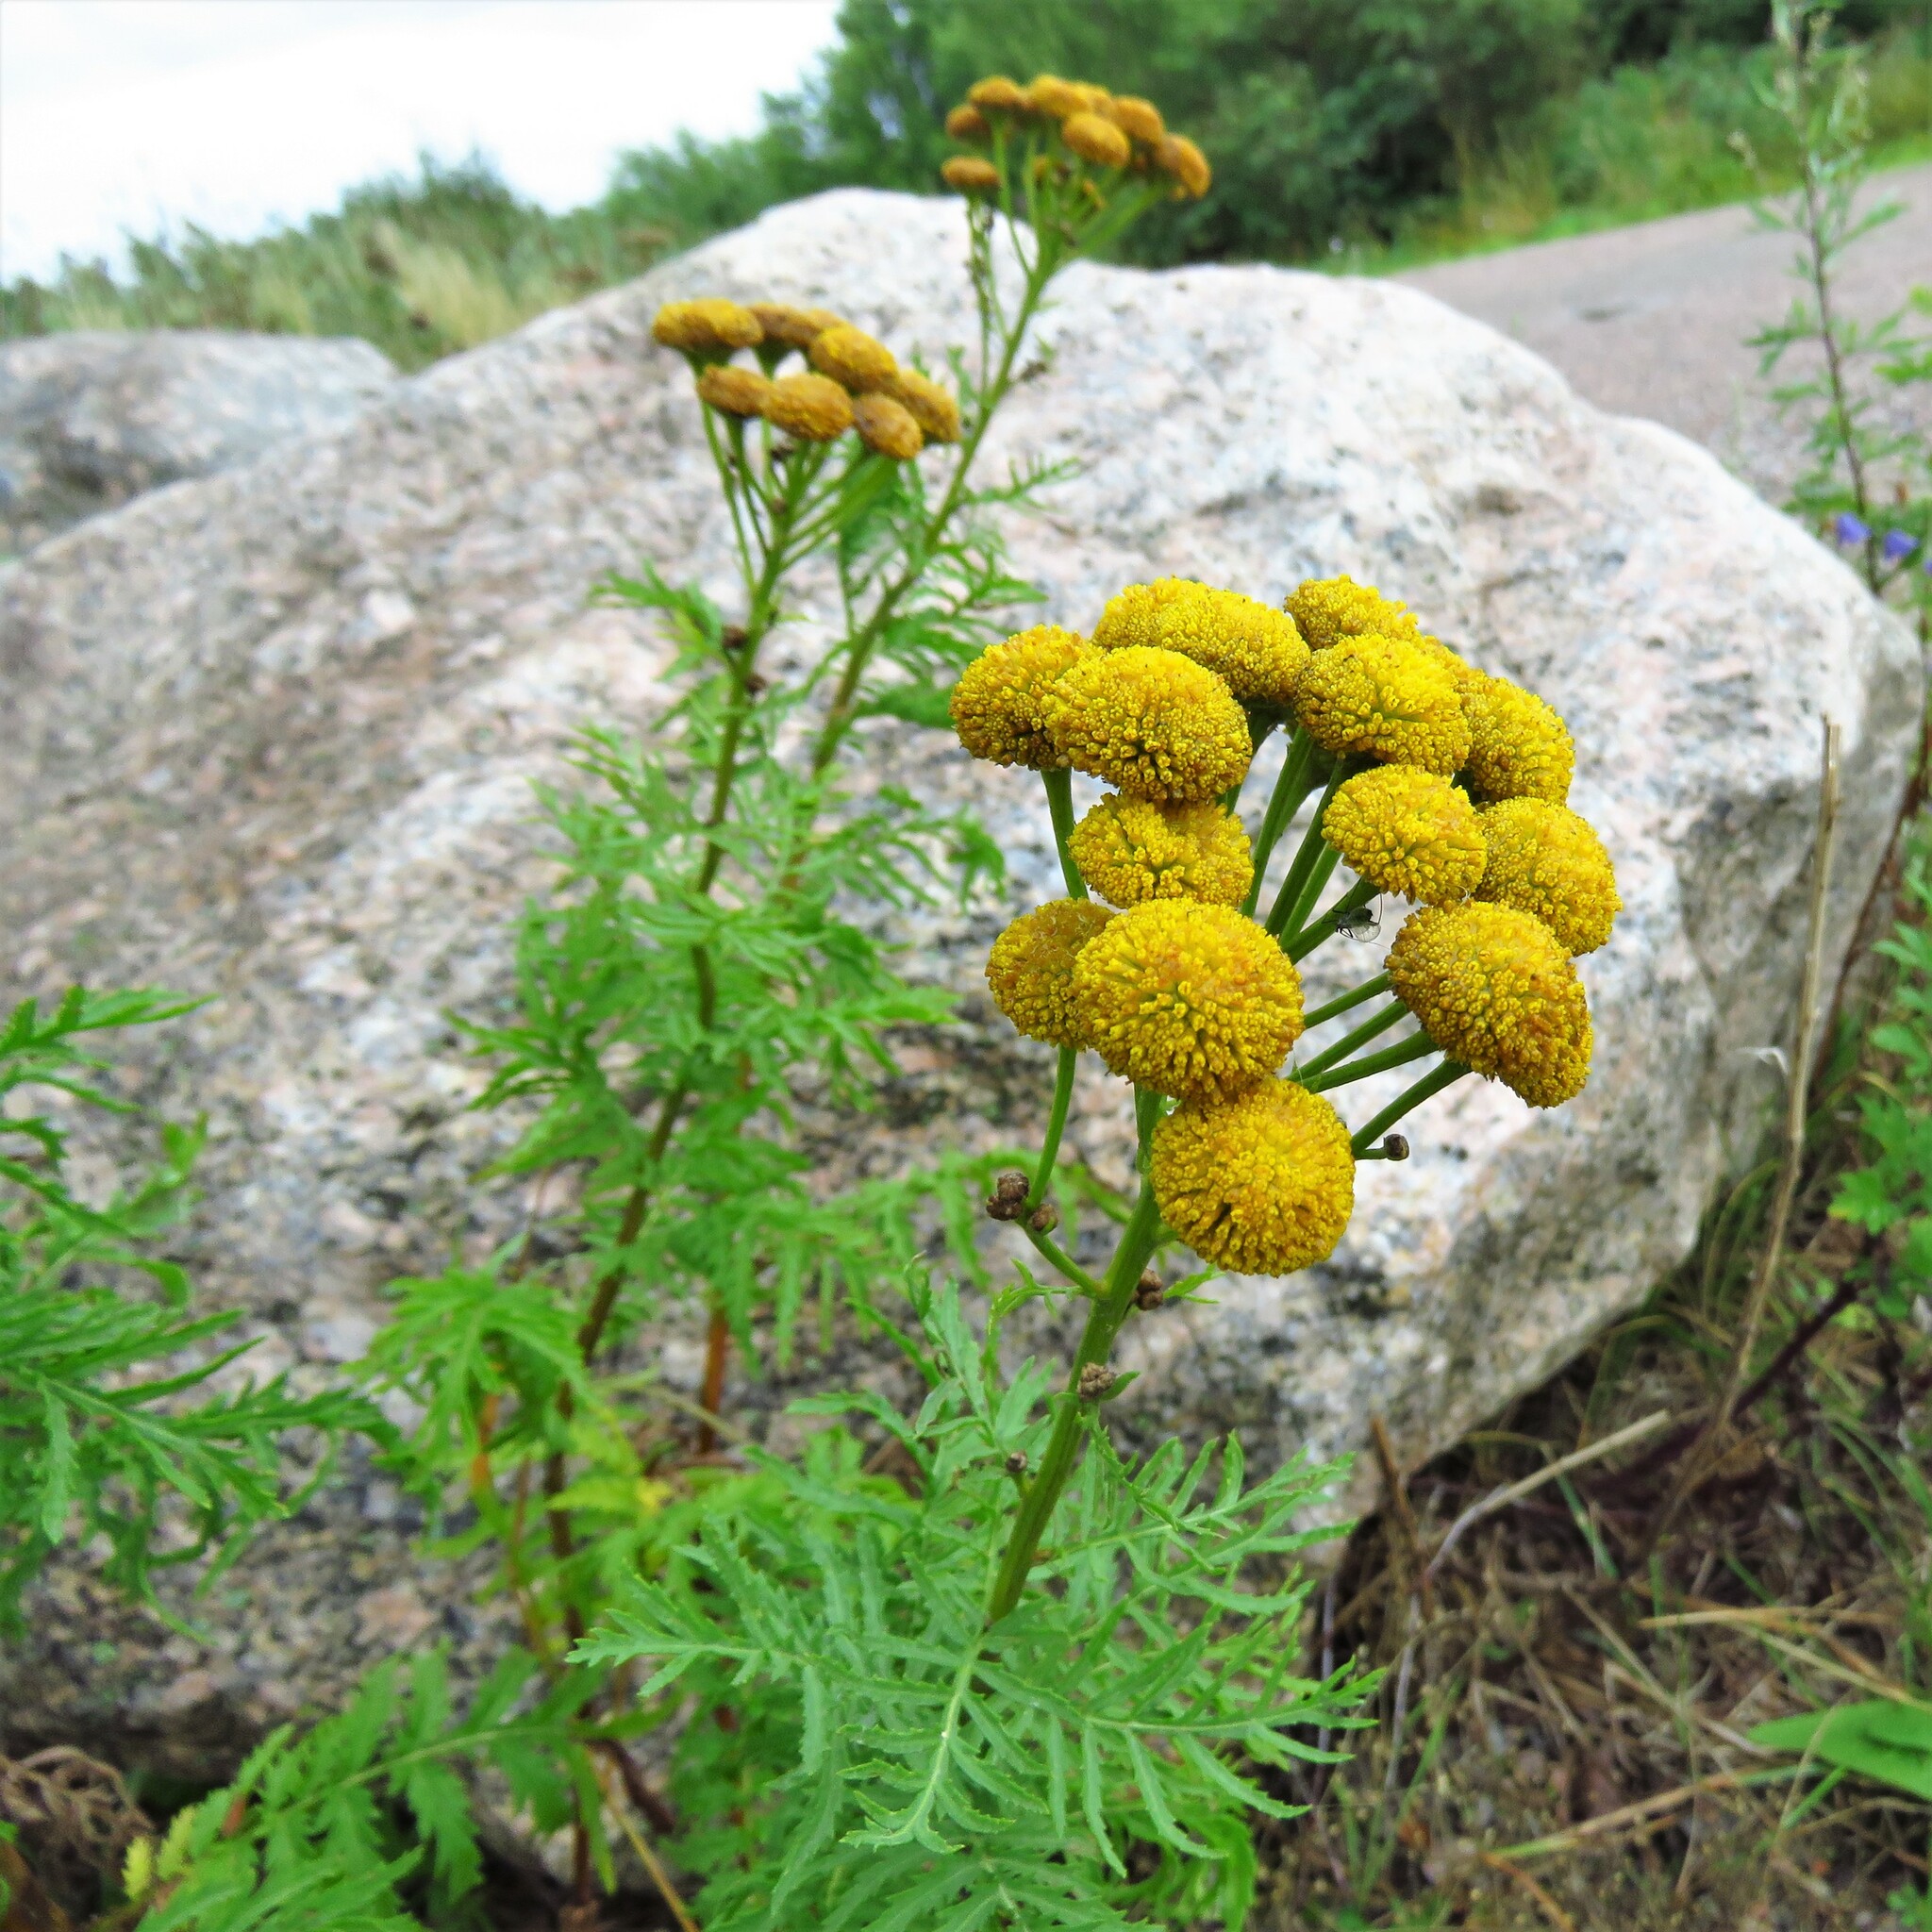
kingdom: Plantae
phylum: Tracheophyta
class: Magnoliopsida
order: Asterales
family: Asteraceae
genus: Tanacetum
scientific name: Tanacetum vulgare
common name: Common tansy
